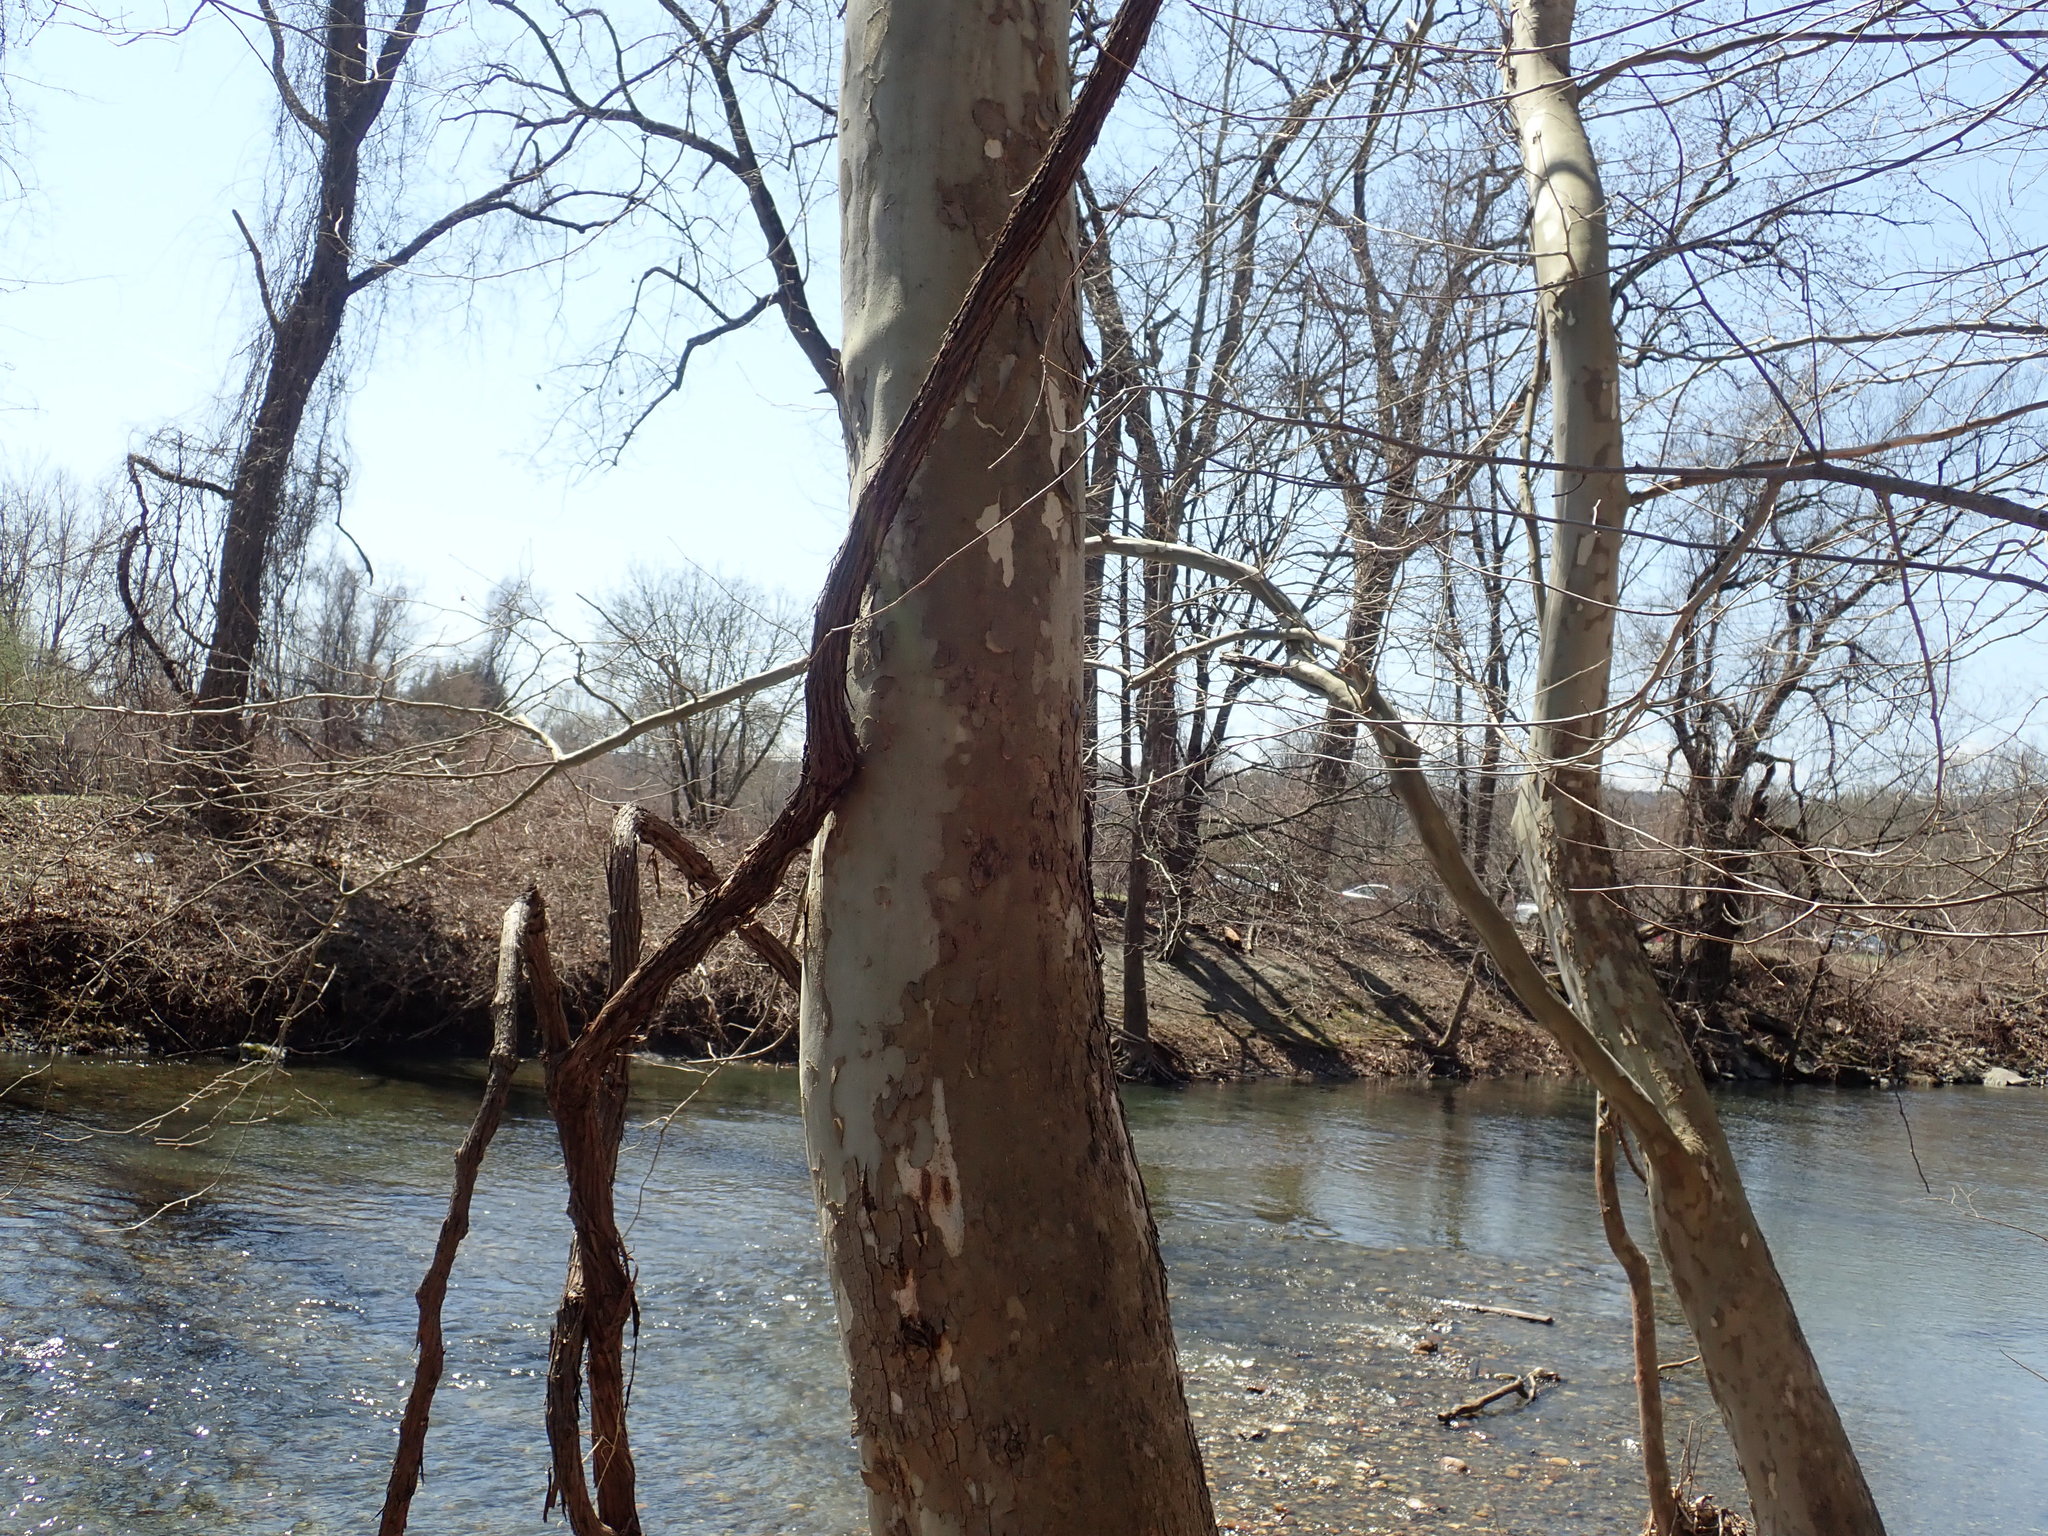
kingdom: Plantae
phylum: Tracheophyta
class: Magnoliopsida
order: Proteales
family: Platanaceae
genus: Platanus
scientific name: Platanus occidentalis
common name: American sycamore
